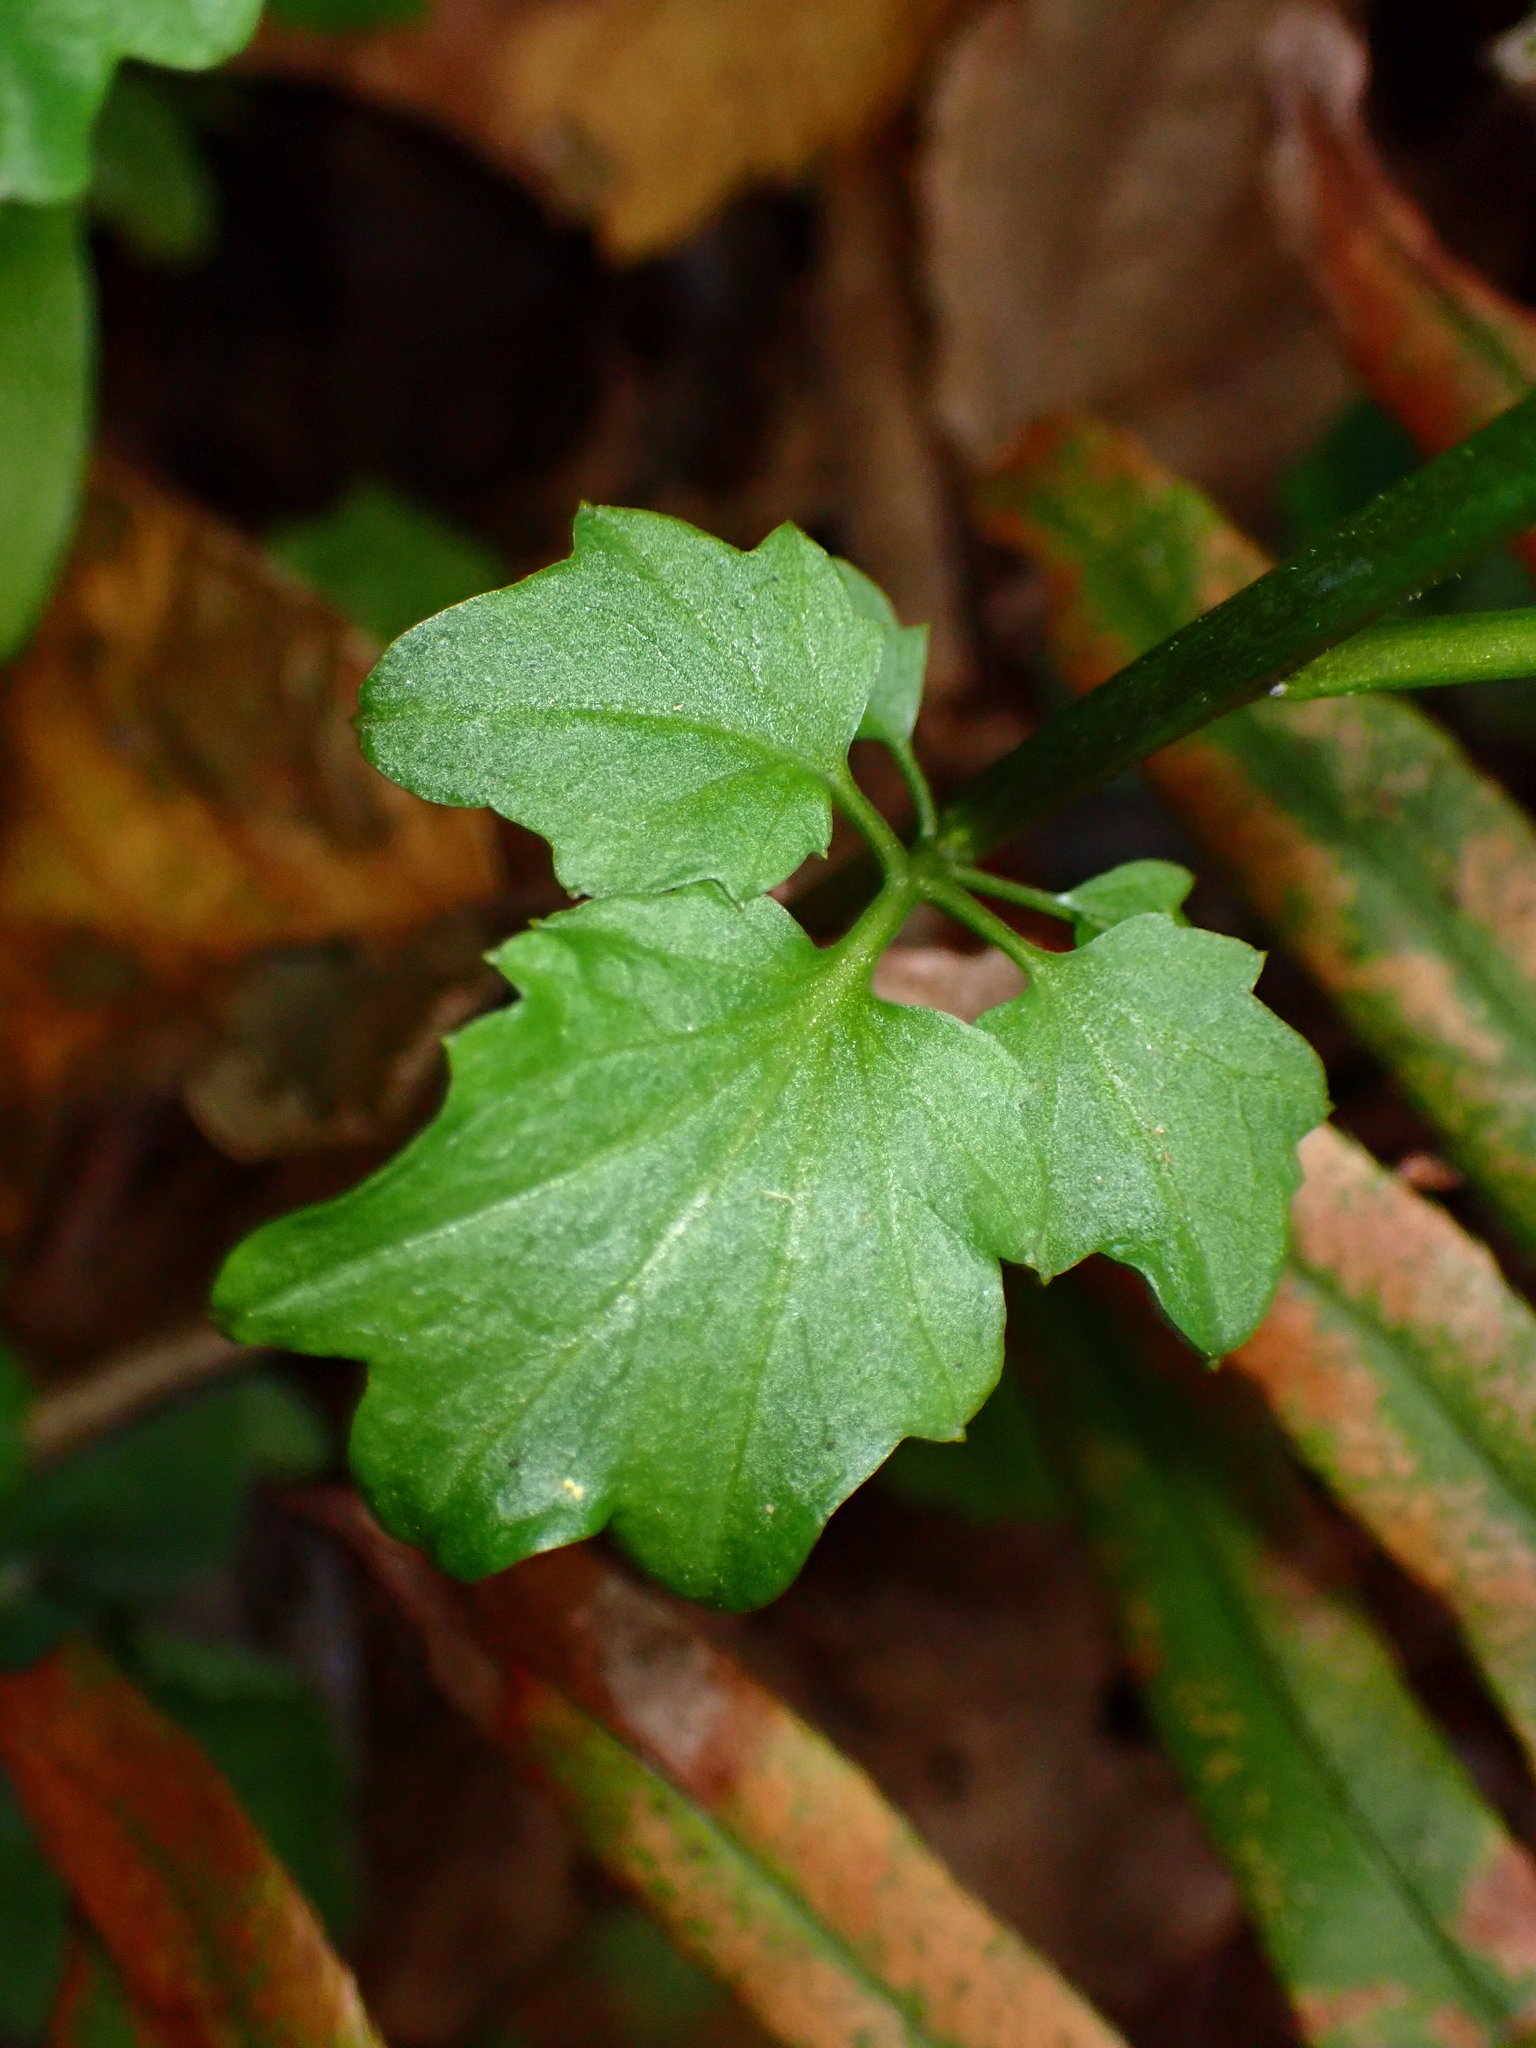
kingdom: Plantae
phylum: Tracheophyta
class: Magnoliopsida
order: Brassicales
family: Brassicaceae
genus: Cardamine
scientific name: Cardamine californica
